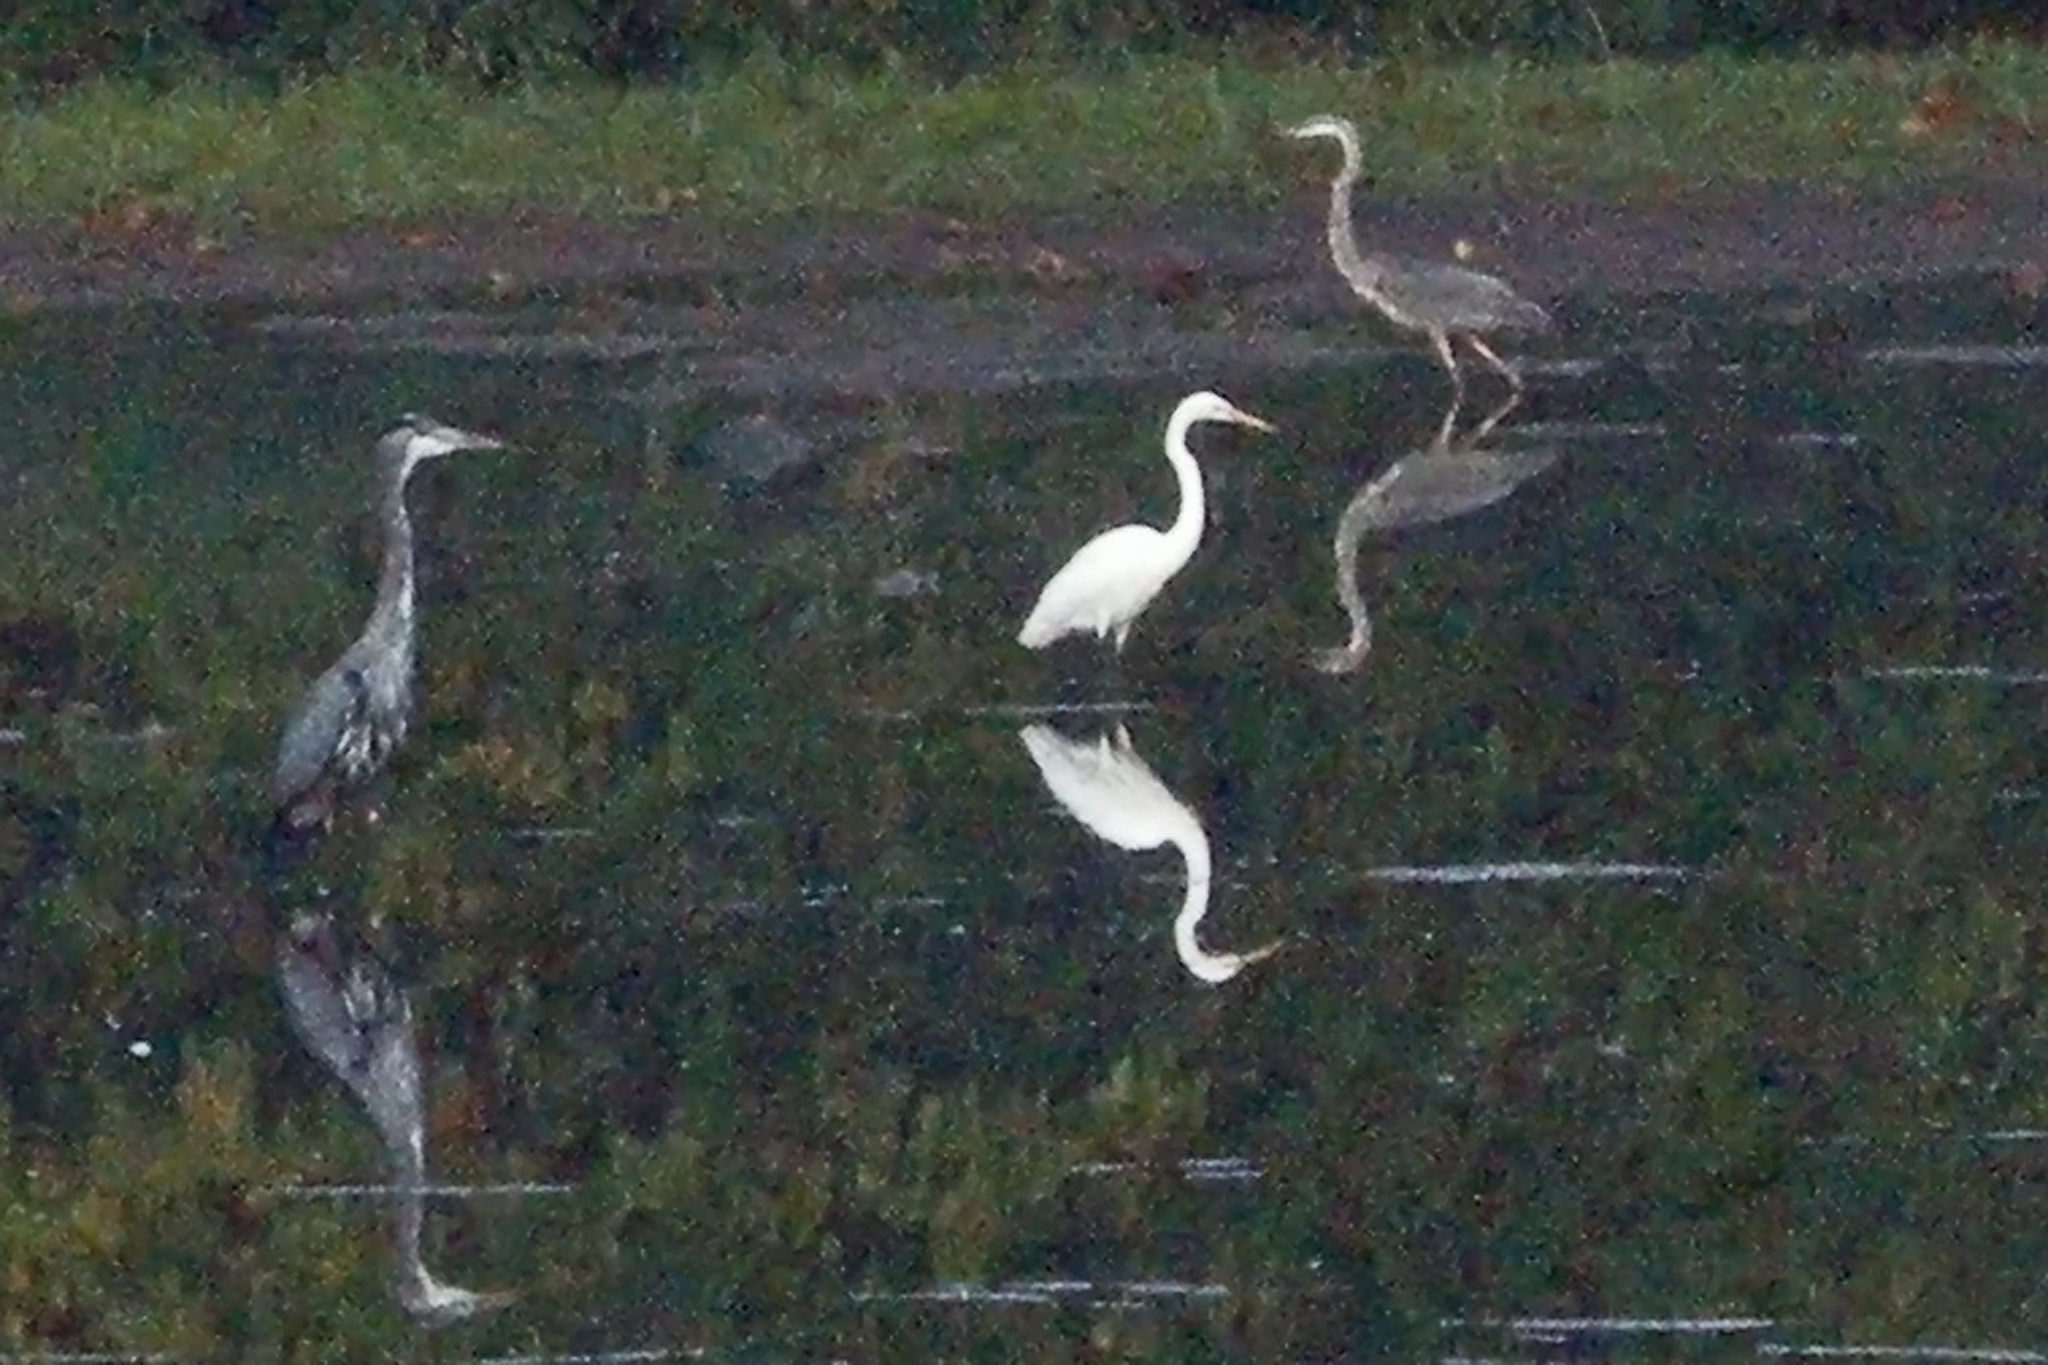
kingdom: Animalia
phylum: Chordata
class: Aves
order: Pelecaniformes
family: Ardeidae
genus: Ardea
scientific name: Ardea alba
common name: Great egret
